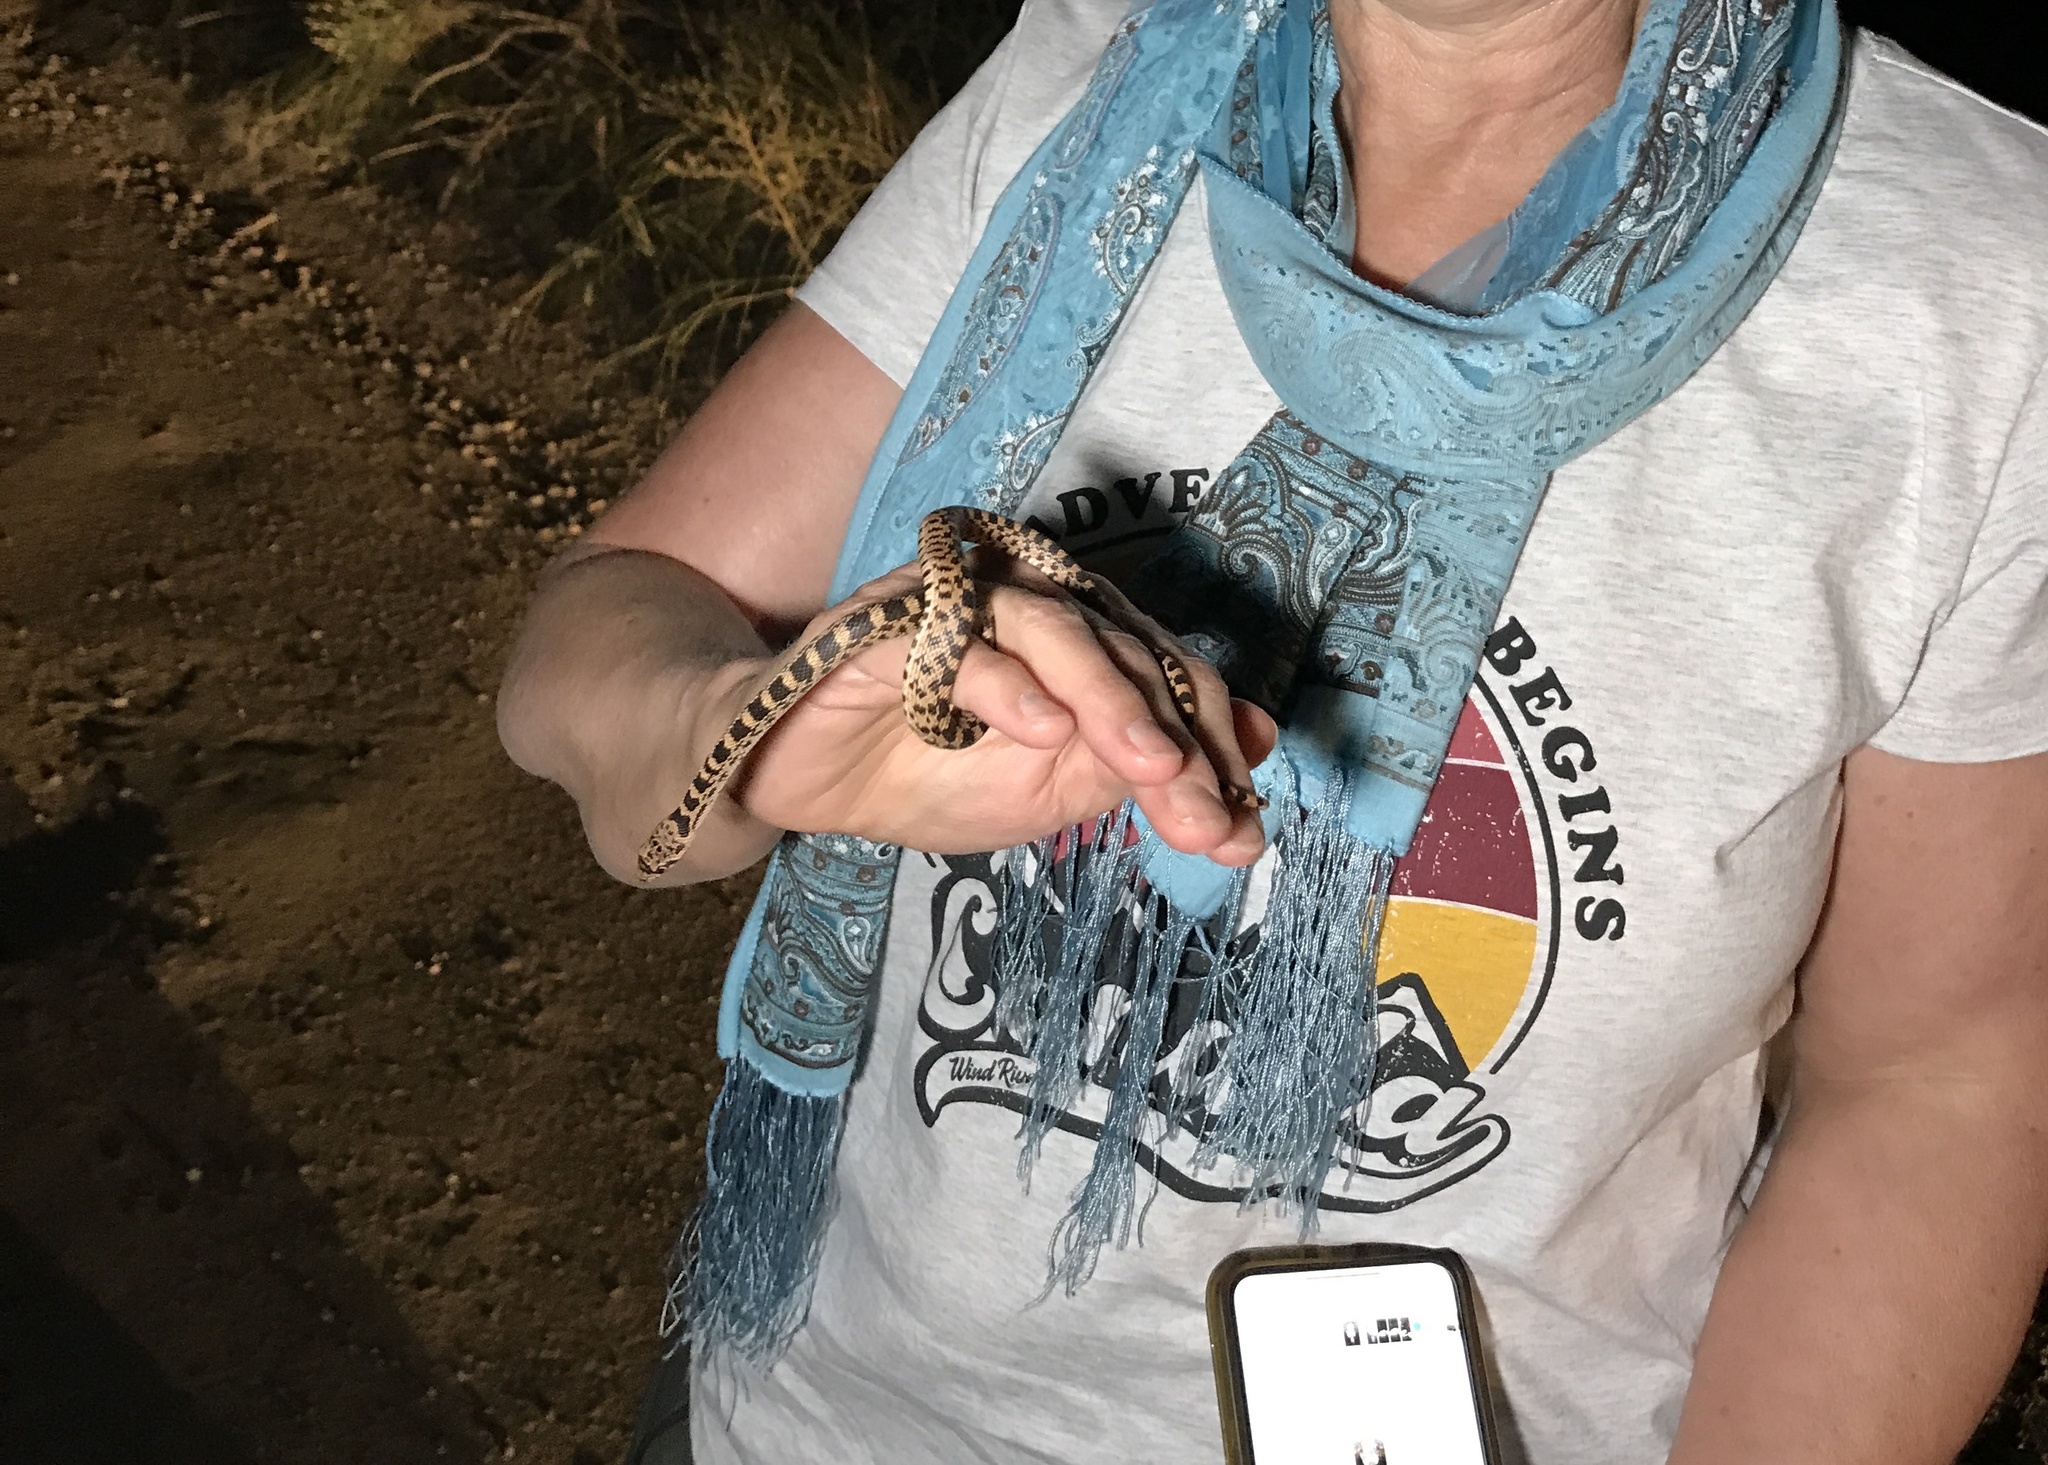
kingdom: Animalia
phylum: Chordata
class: Squamata
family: Colubridae
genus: Pituophis
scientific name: Pituophis catenifer
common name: Gopher snake
